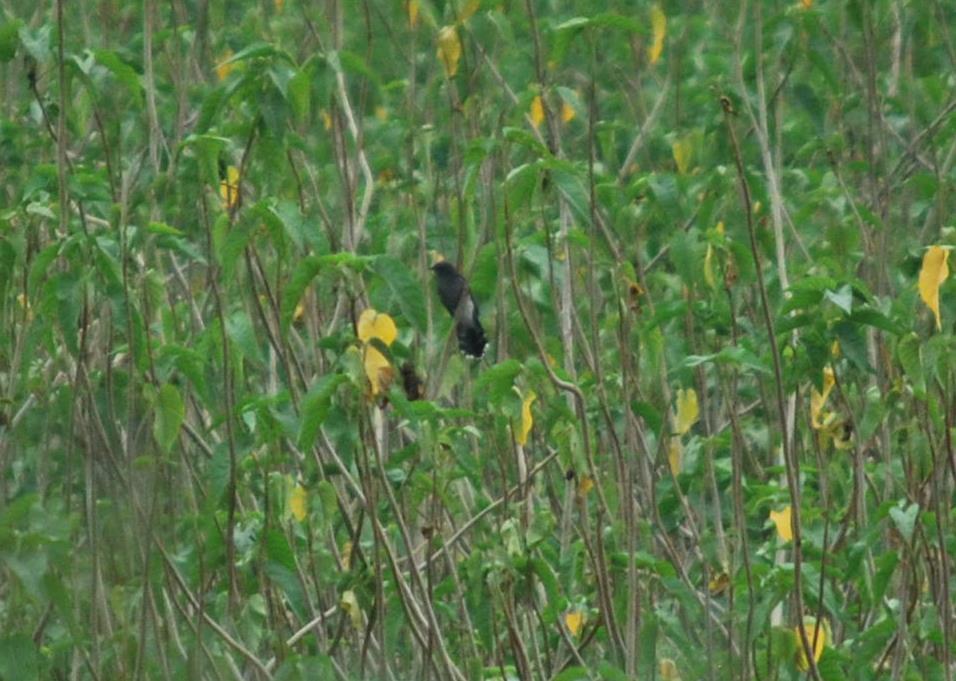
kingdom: Animalia
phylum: Chordata
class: Aves
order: Cuculiformes
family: Cuculidae
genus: Cacomantis
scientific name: Cacomantis passerinus
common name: Grey-bellied cuckoo
